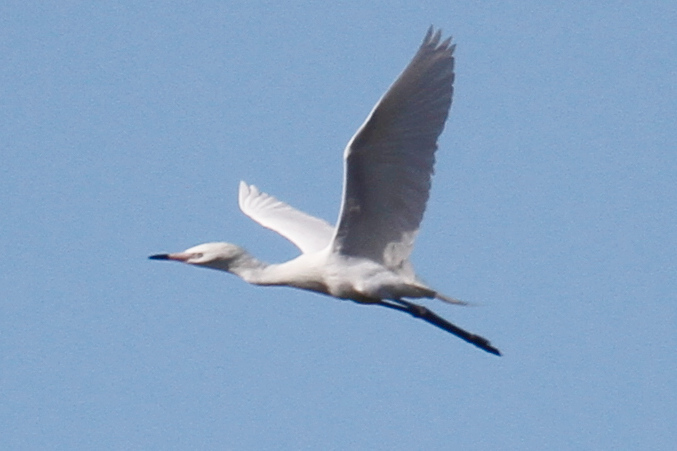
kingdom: Animalia
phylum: Chordata
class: Aves
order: Pelecaniformes
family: Ardeidae
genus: Egretta
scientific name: Egretta rufescens
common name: Reddish egret
